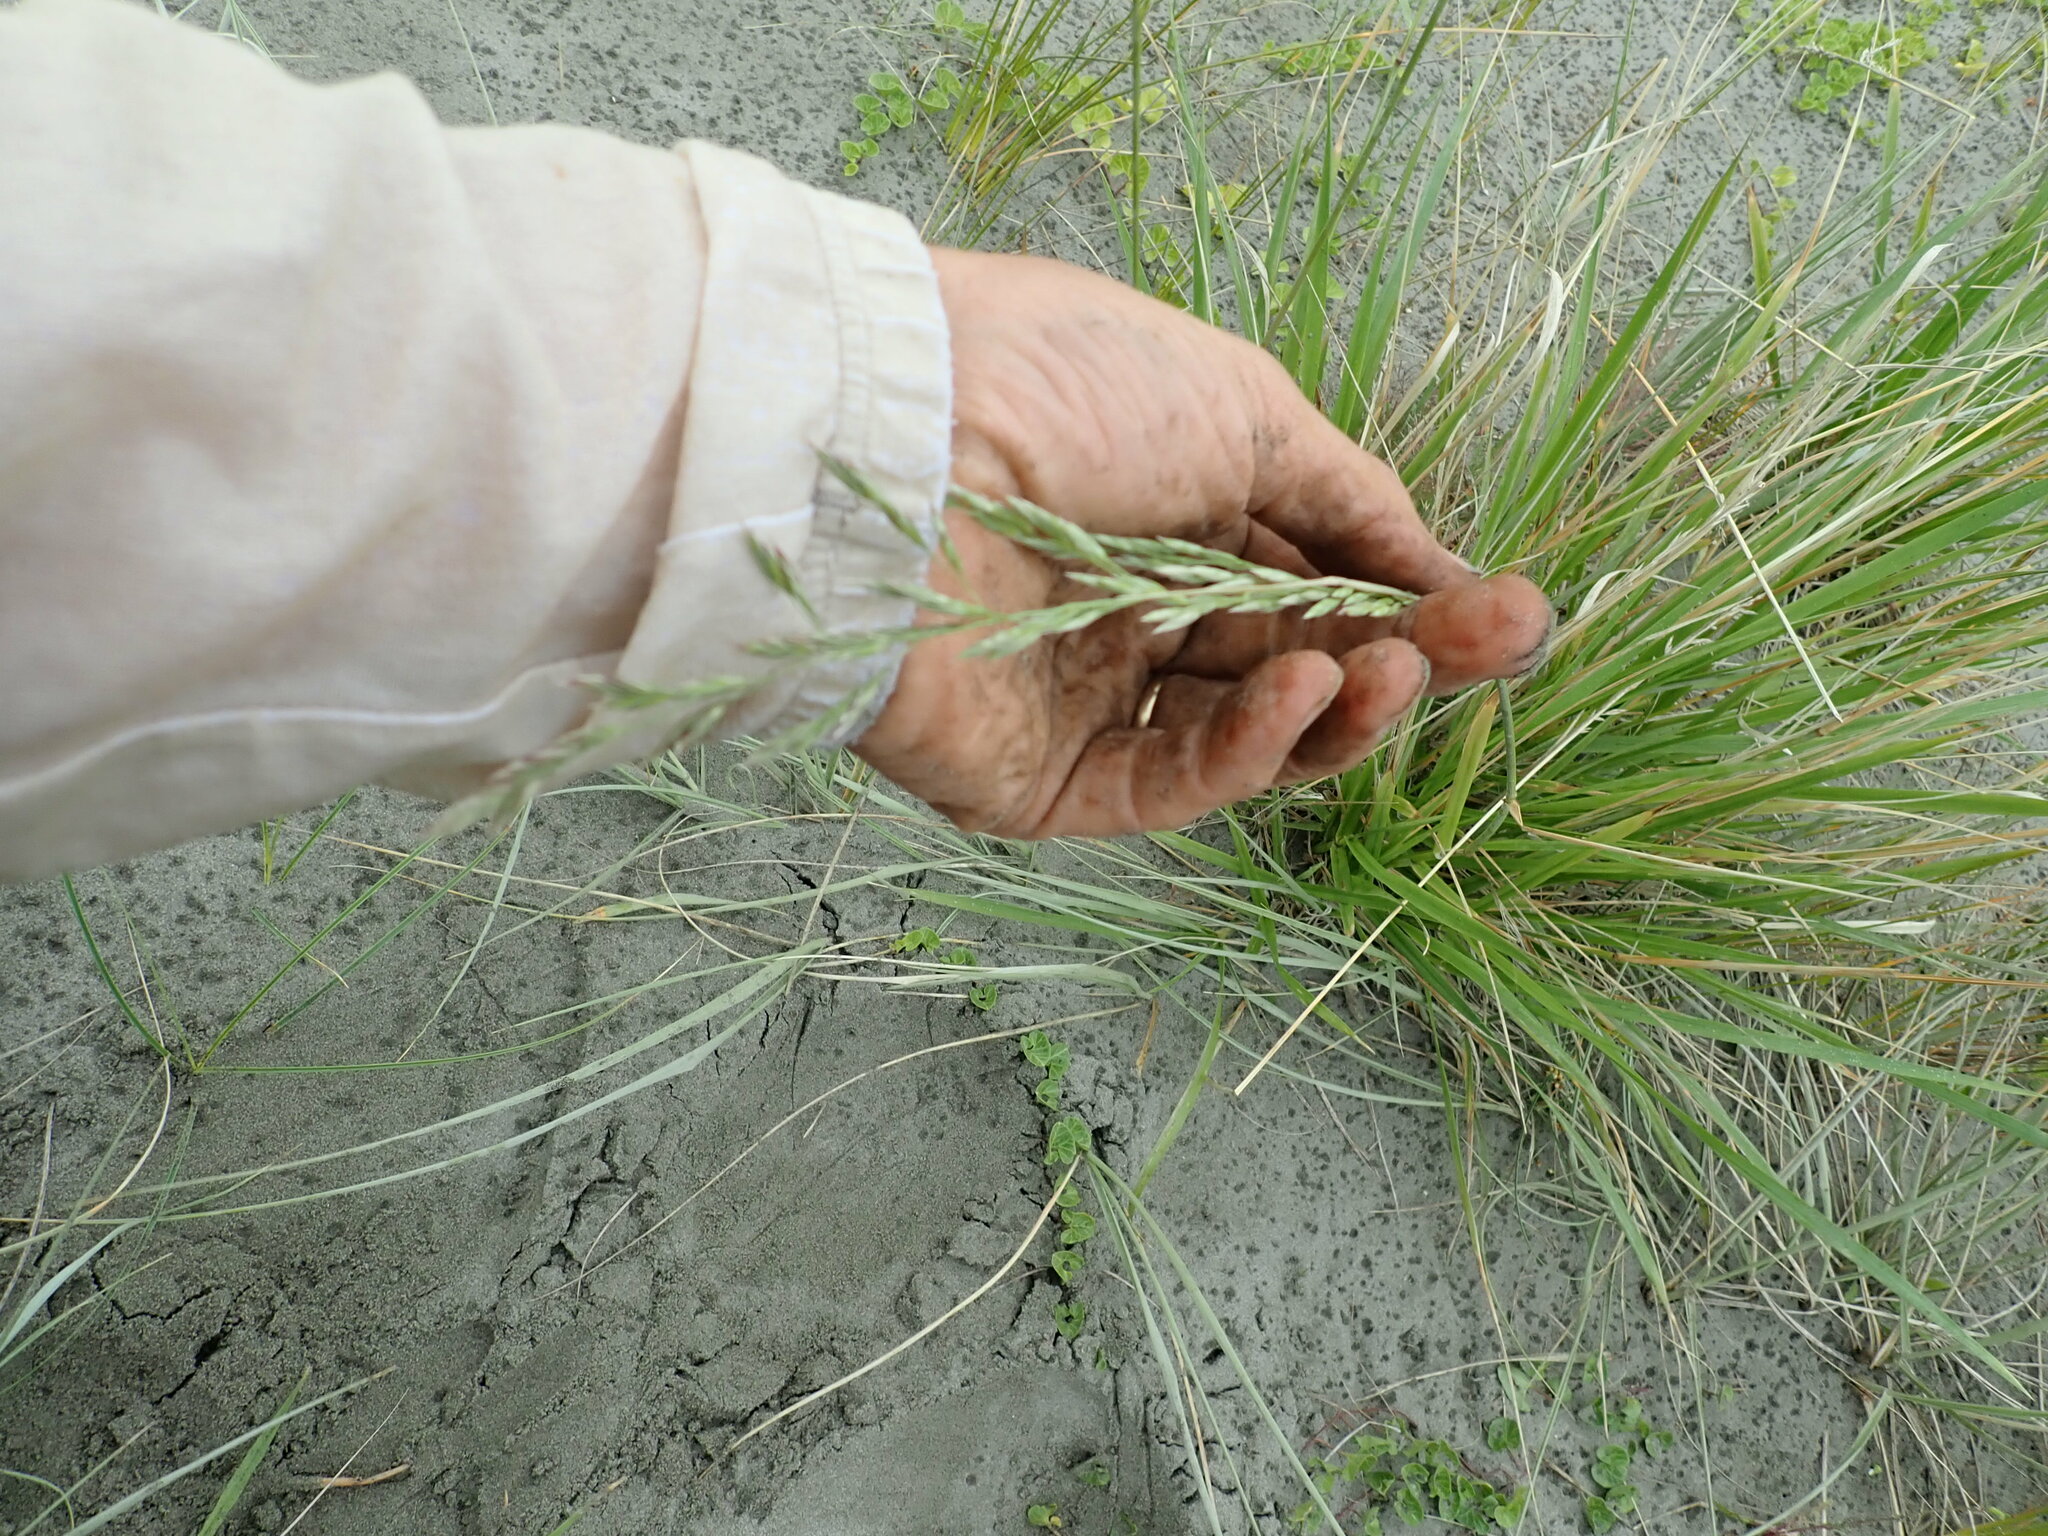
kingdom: Plantae
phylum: Tracheophyta
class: Liliopsida
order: Poales
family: Poaceae
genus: Lolium
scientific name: Lolium arundinaceum
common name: Reed fescue
